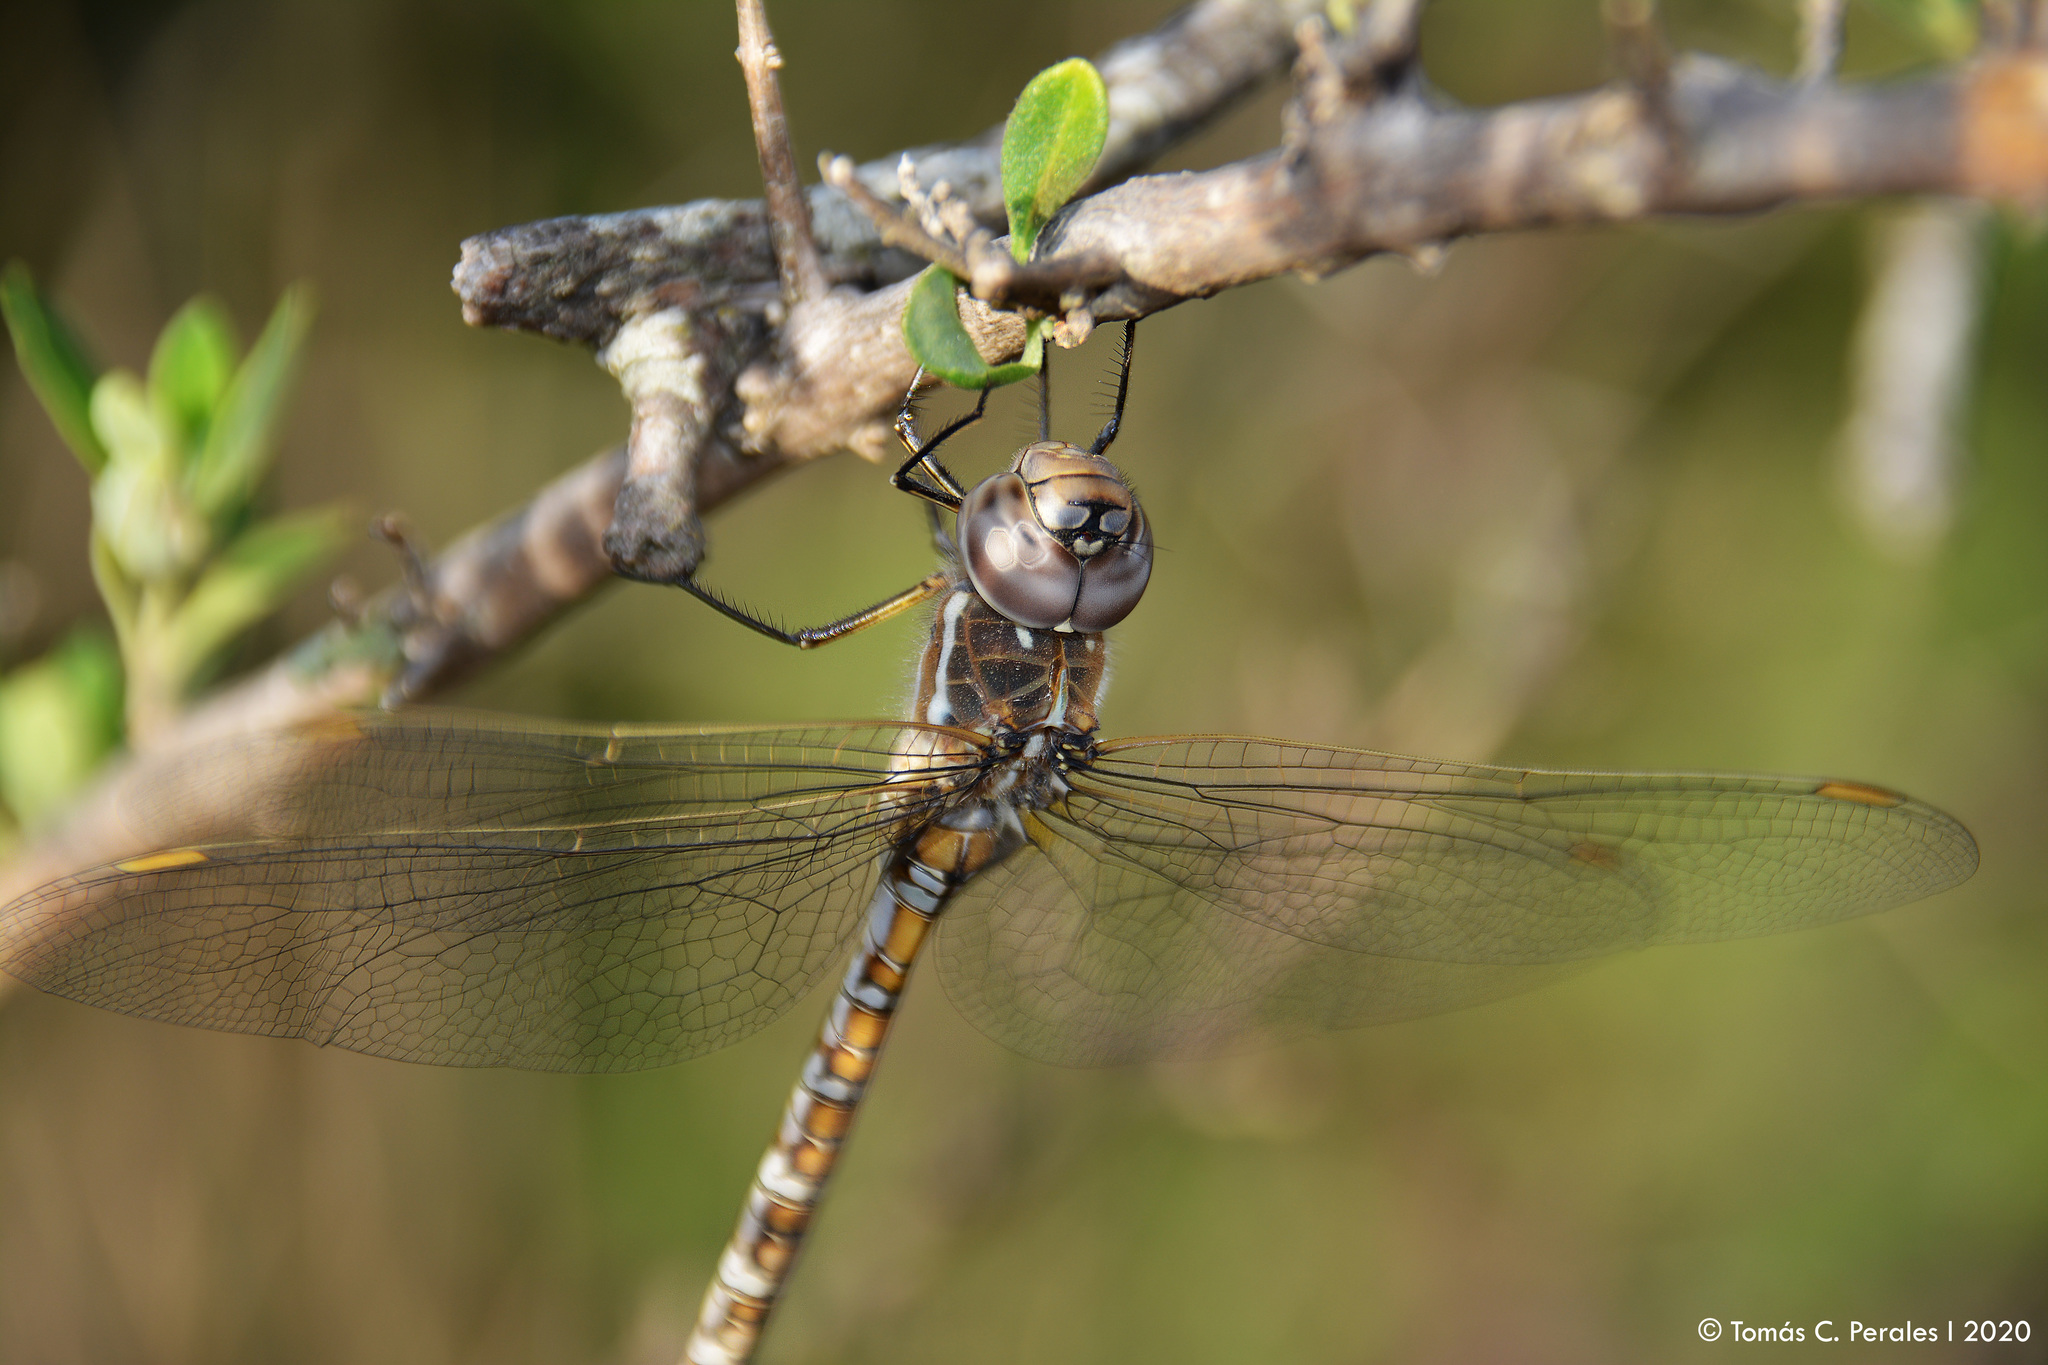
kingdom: Animalia
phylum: Arthropoda
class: Insecta
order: Odonata
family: Aeshnidae
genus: Rhionaeschna
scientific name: Rhionaeschna absoluta
